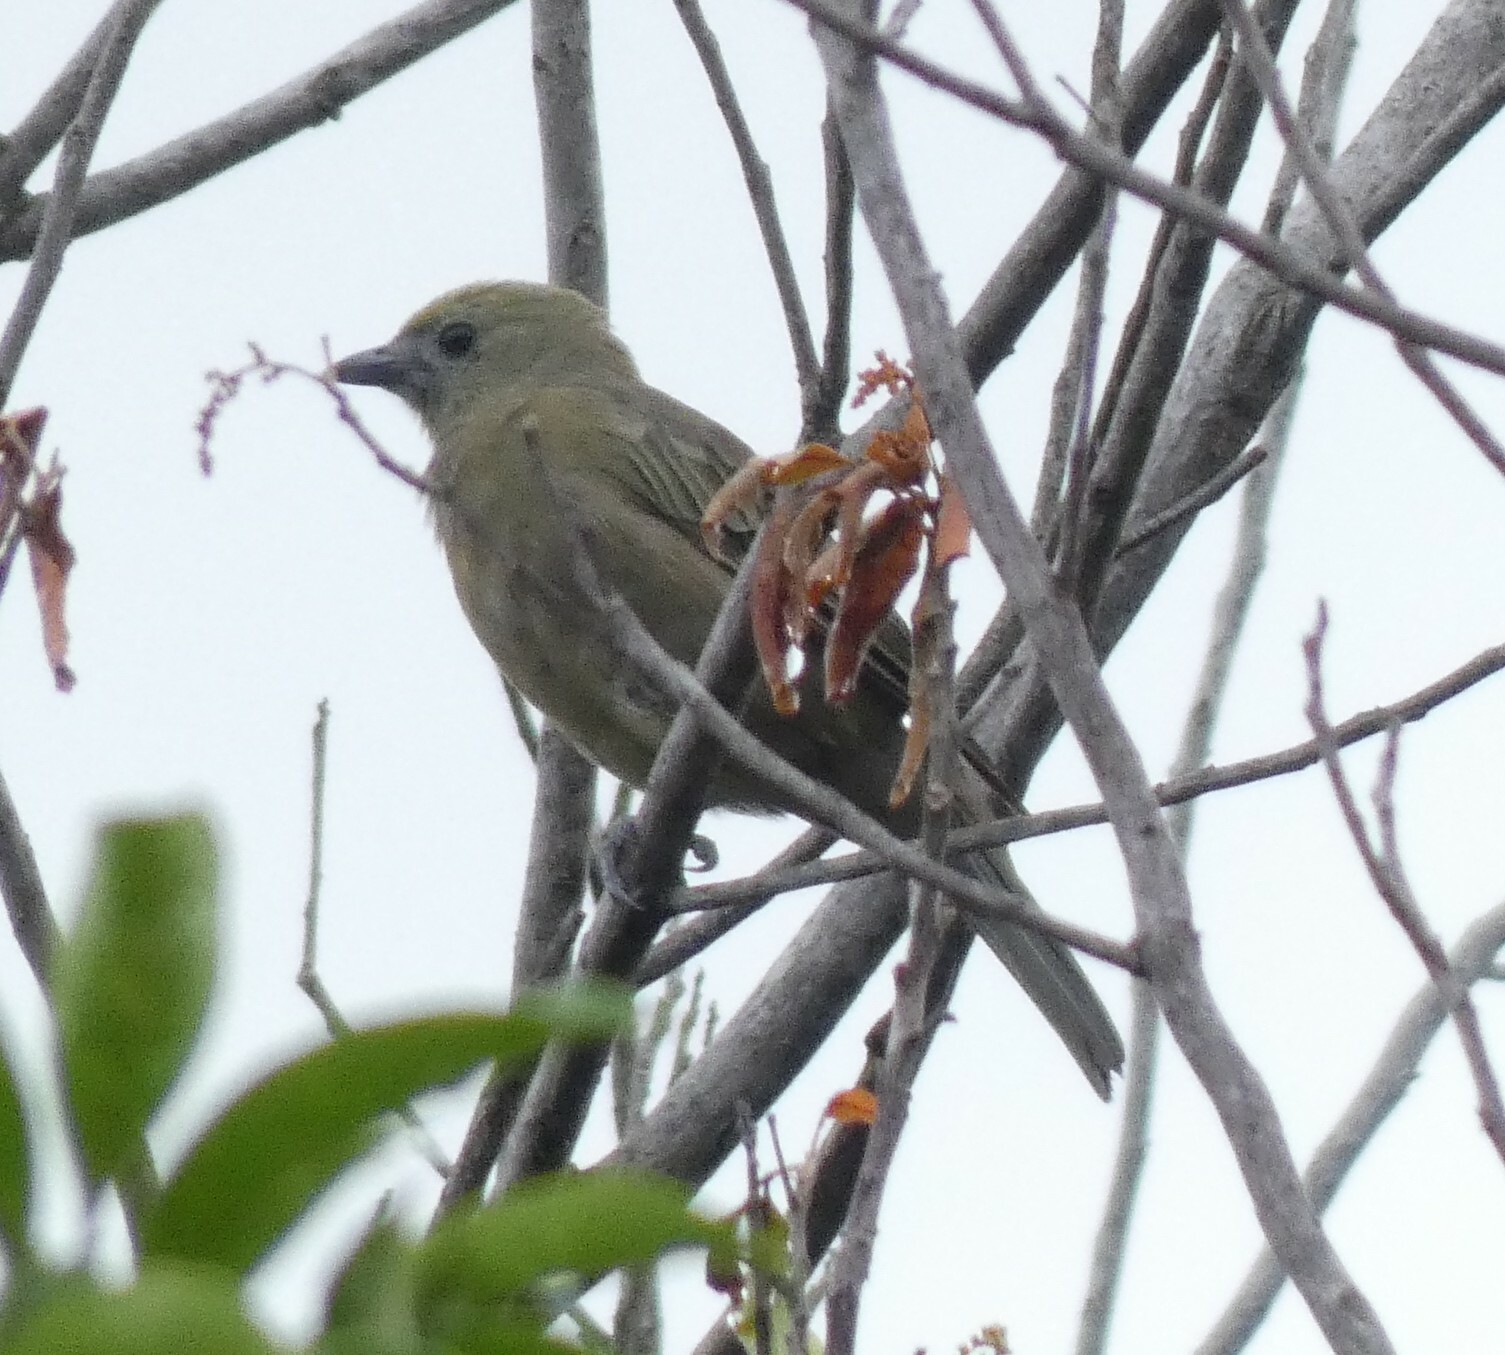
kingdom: Animalia
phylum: Chordata
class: Aves
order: Passeriformes
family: Thraupidae
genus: Thraupis
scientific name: Thraupis palmarum
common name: Palm tanager
